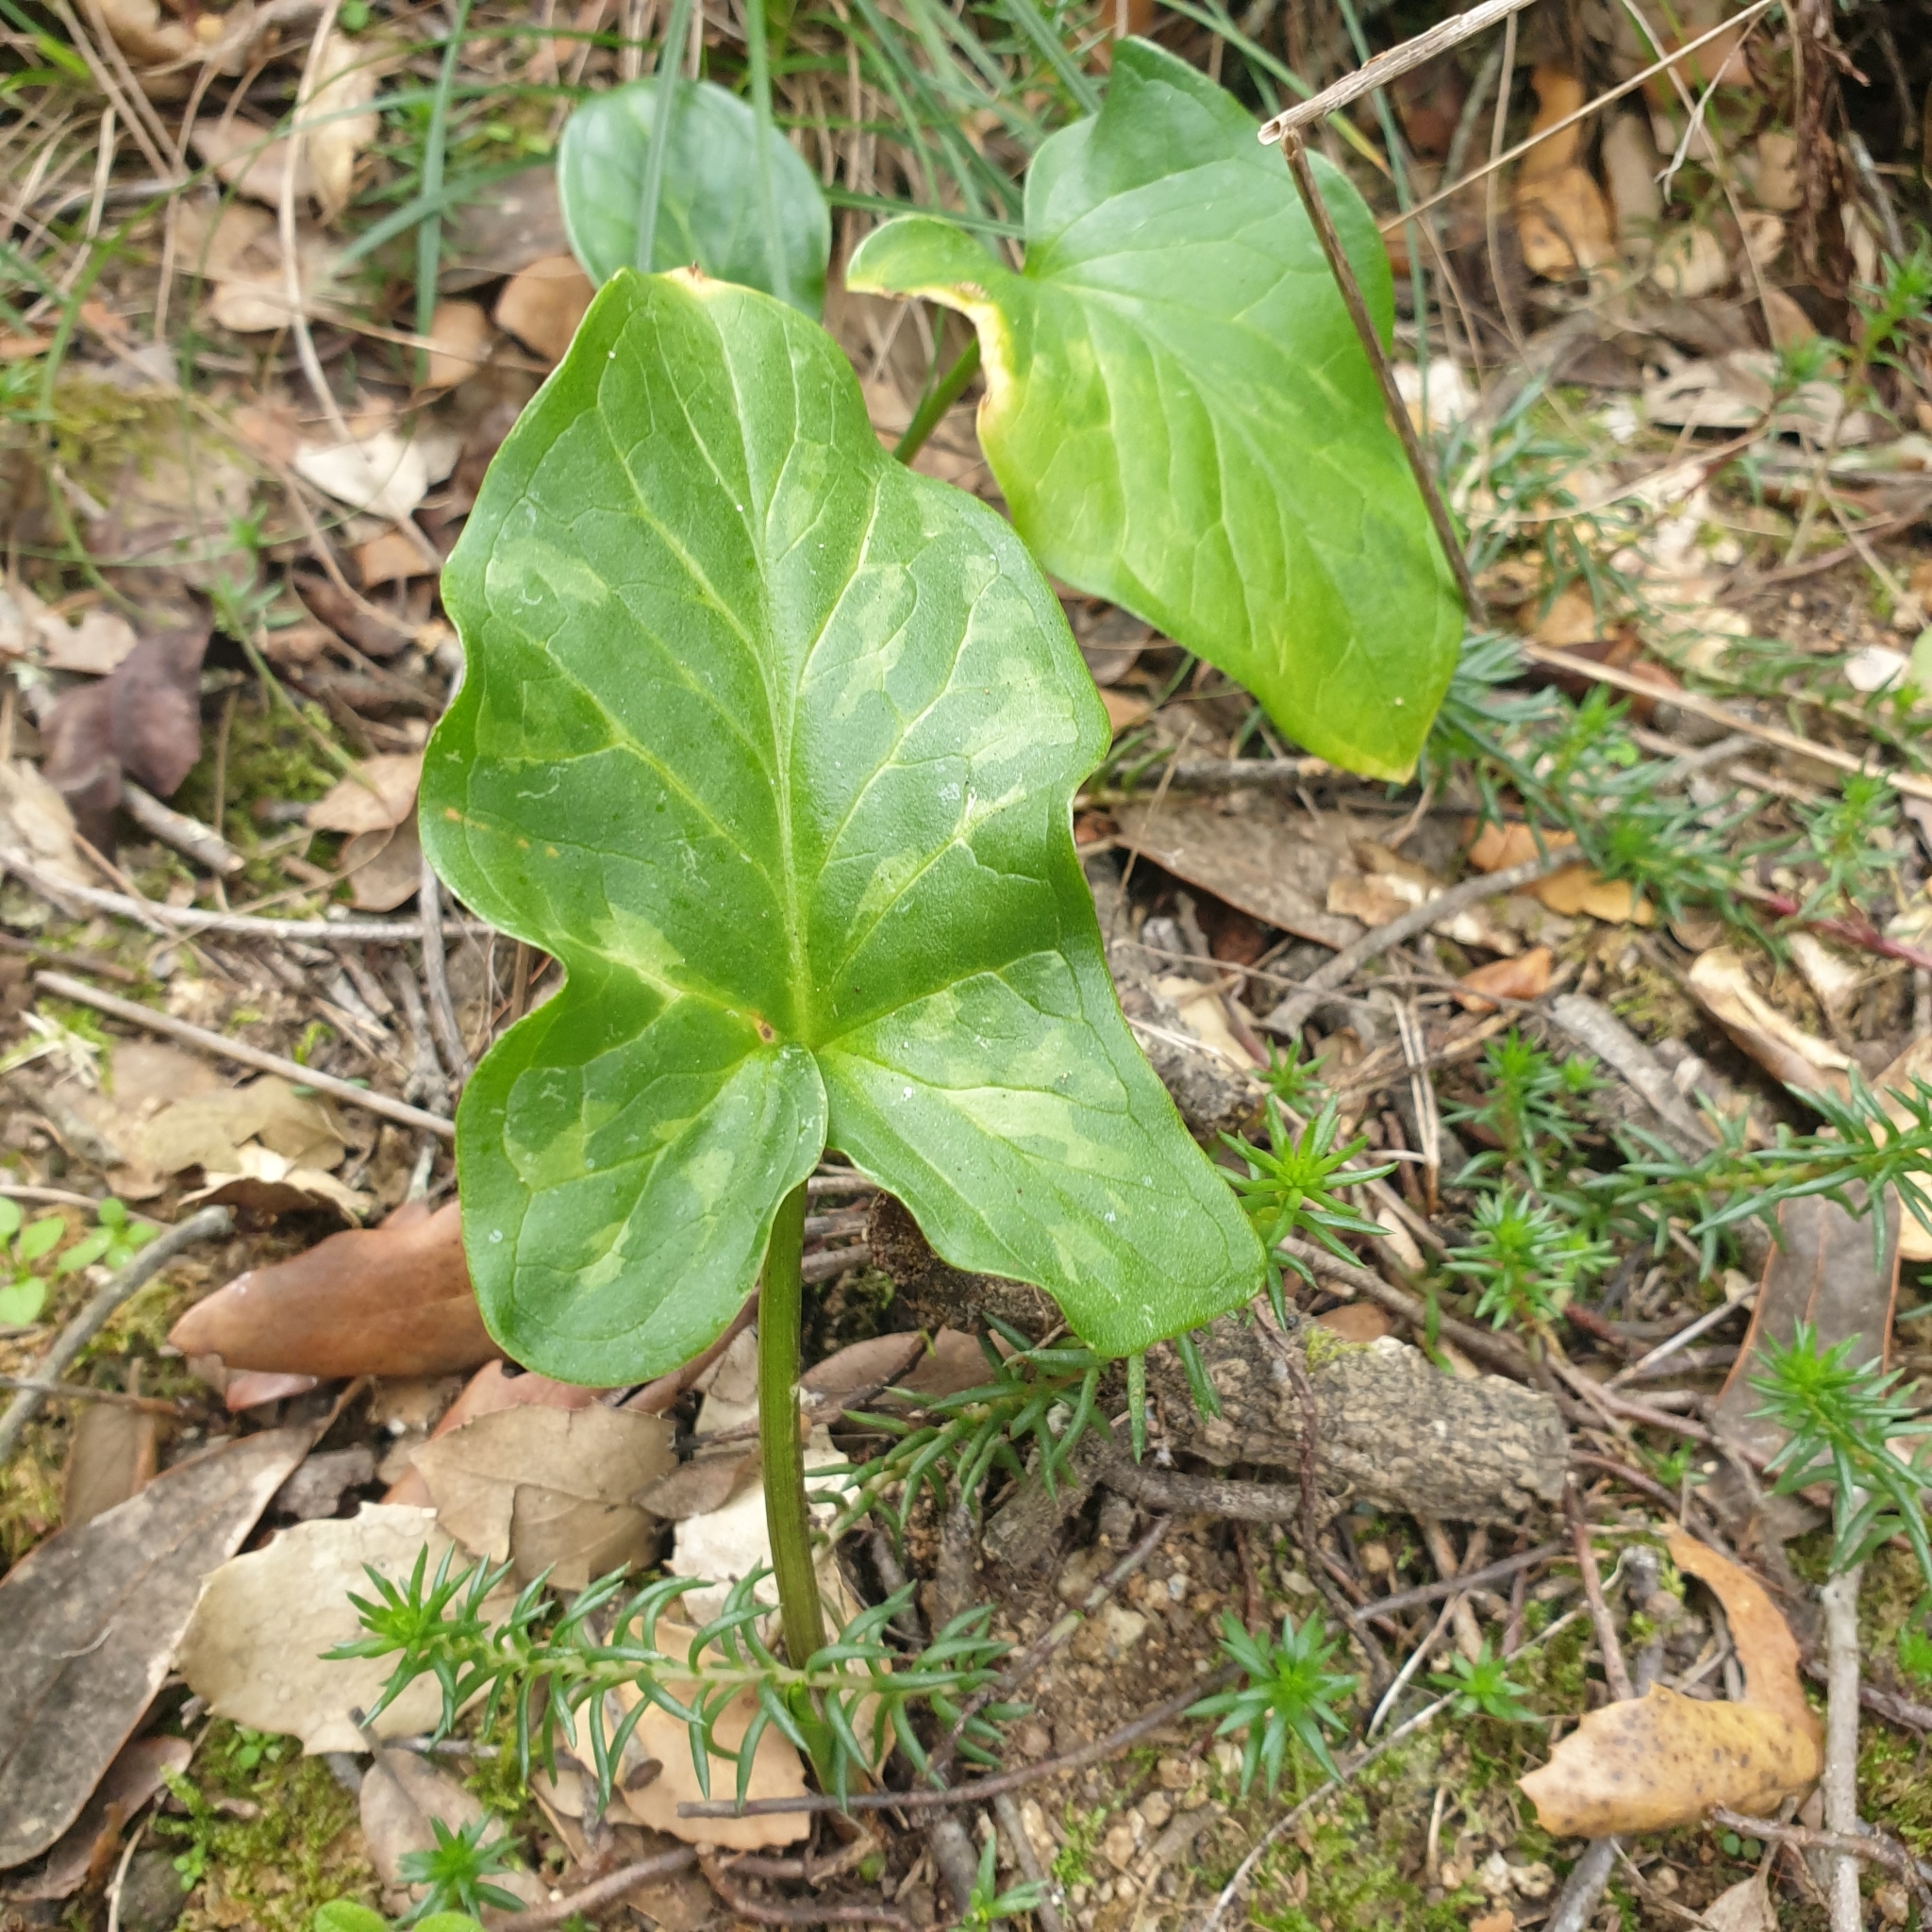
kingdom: Plantae
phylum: Tracheophyta
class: Liliopsida
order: Alismatales
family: Araceae
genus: Arum
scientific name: Arum italicum
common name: Italian lords-and-ladies
